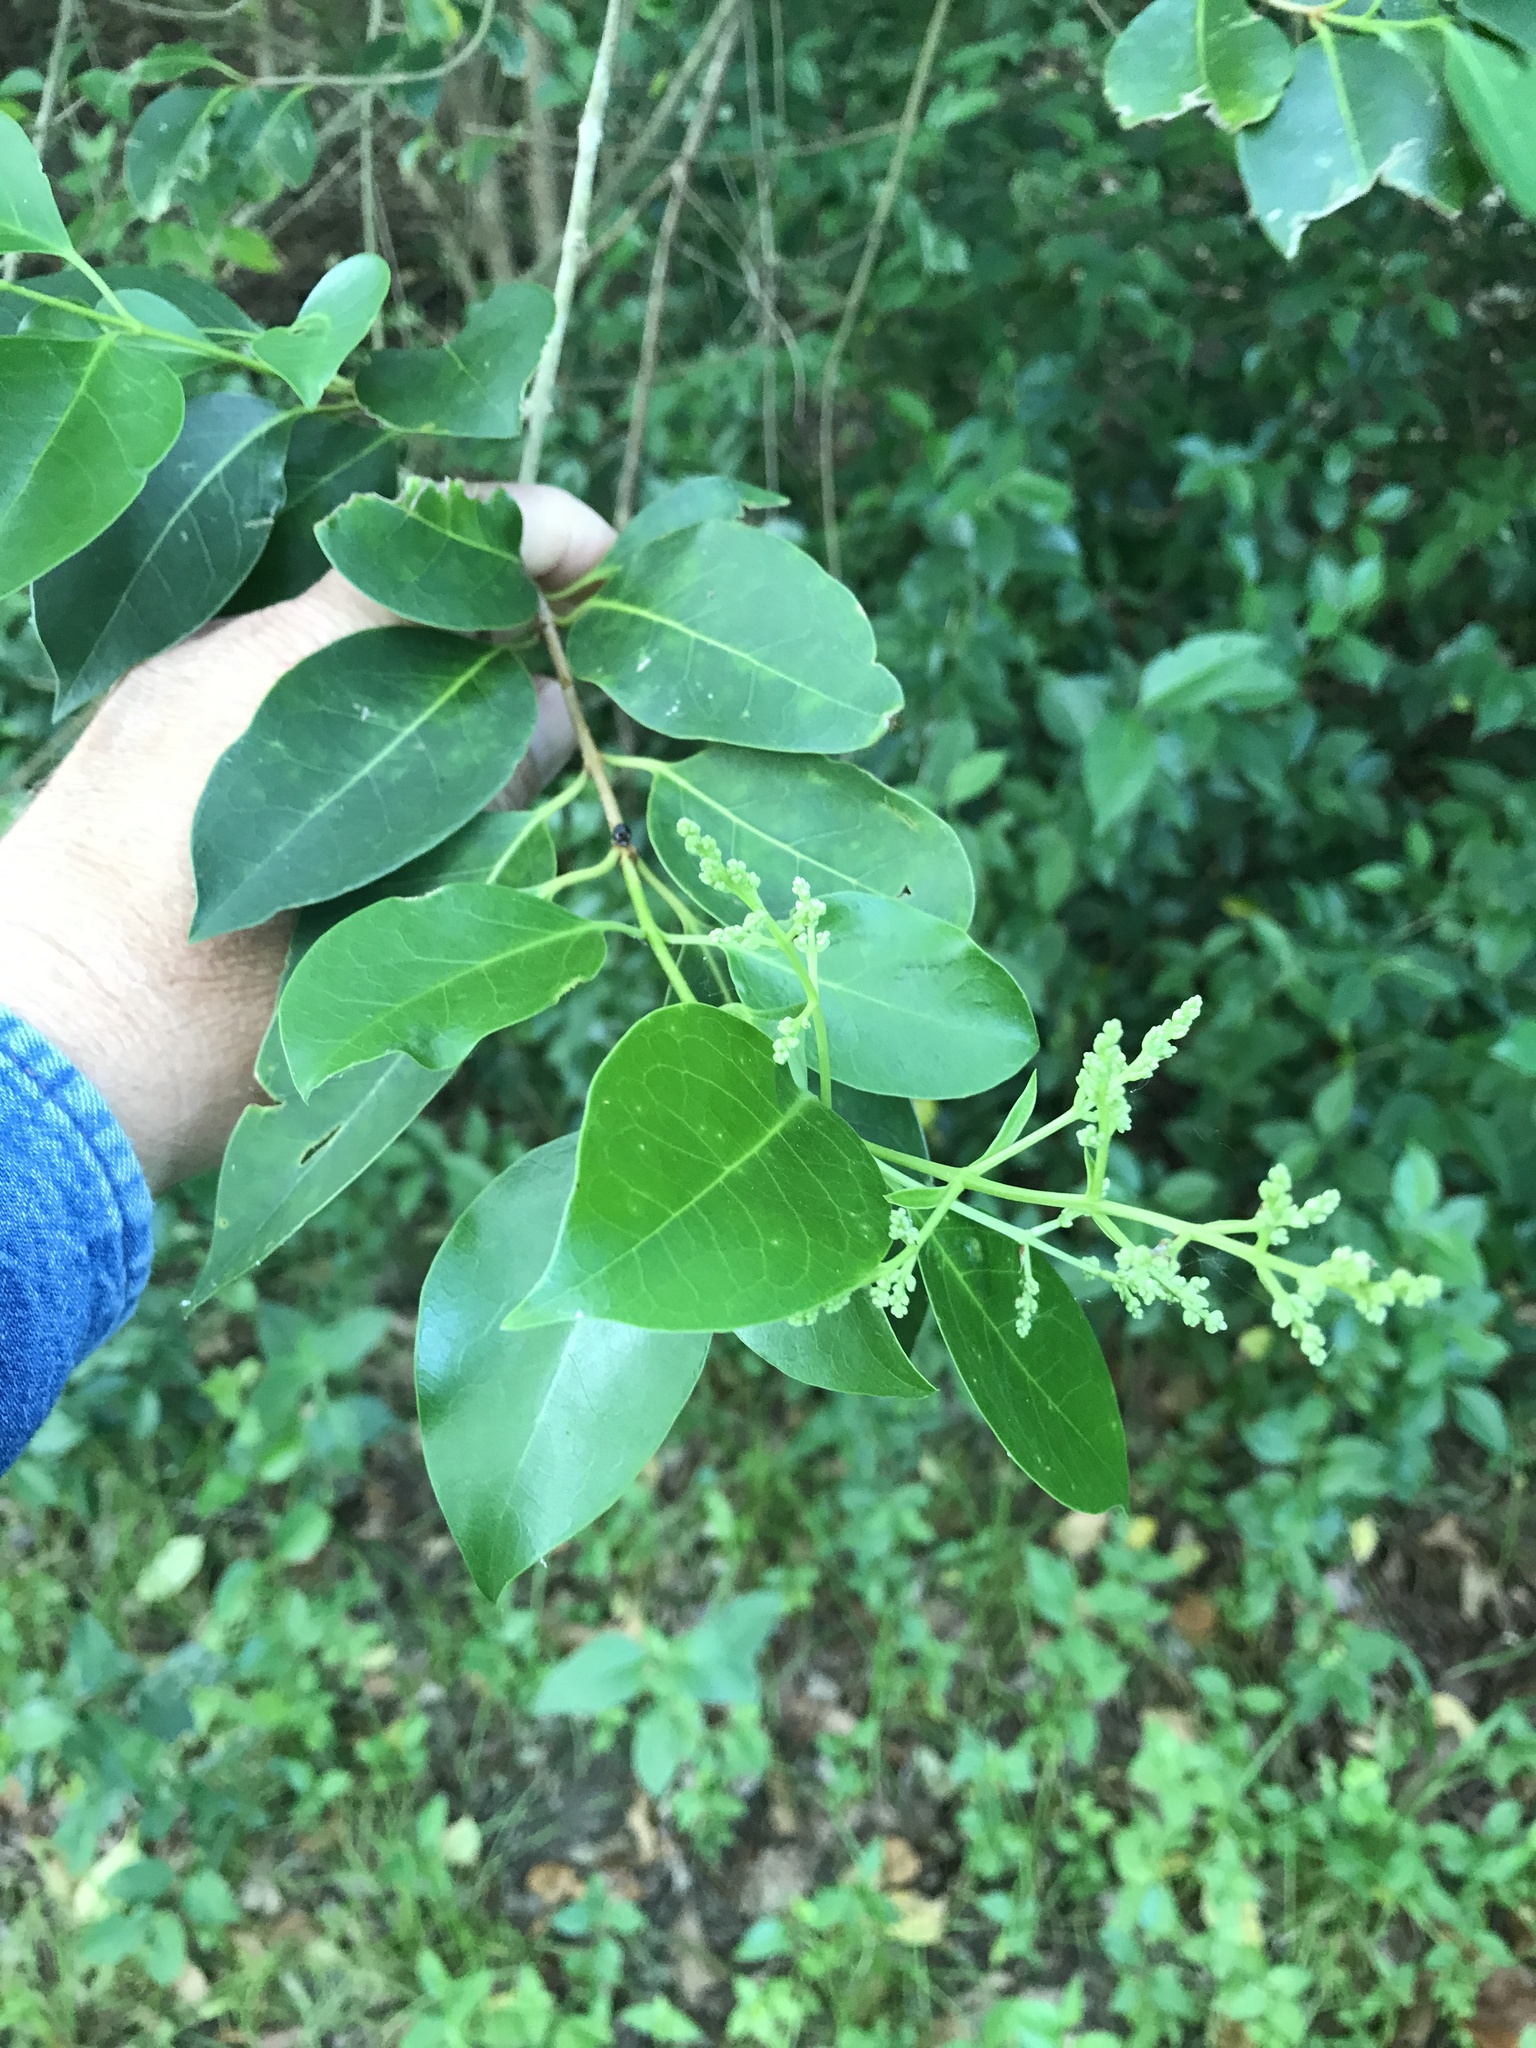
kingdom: Plantae
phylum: Tracheophyta
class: Magnoliopsida
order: Lamiales
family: Oleaceae
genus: Ligustrum
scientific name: Ligustrum lucidum
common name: Glossy privet
